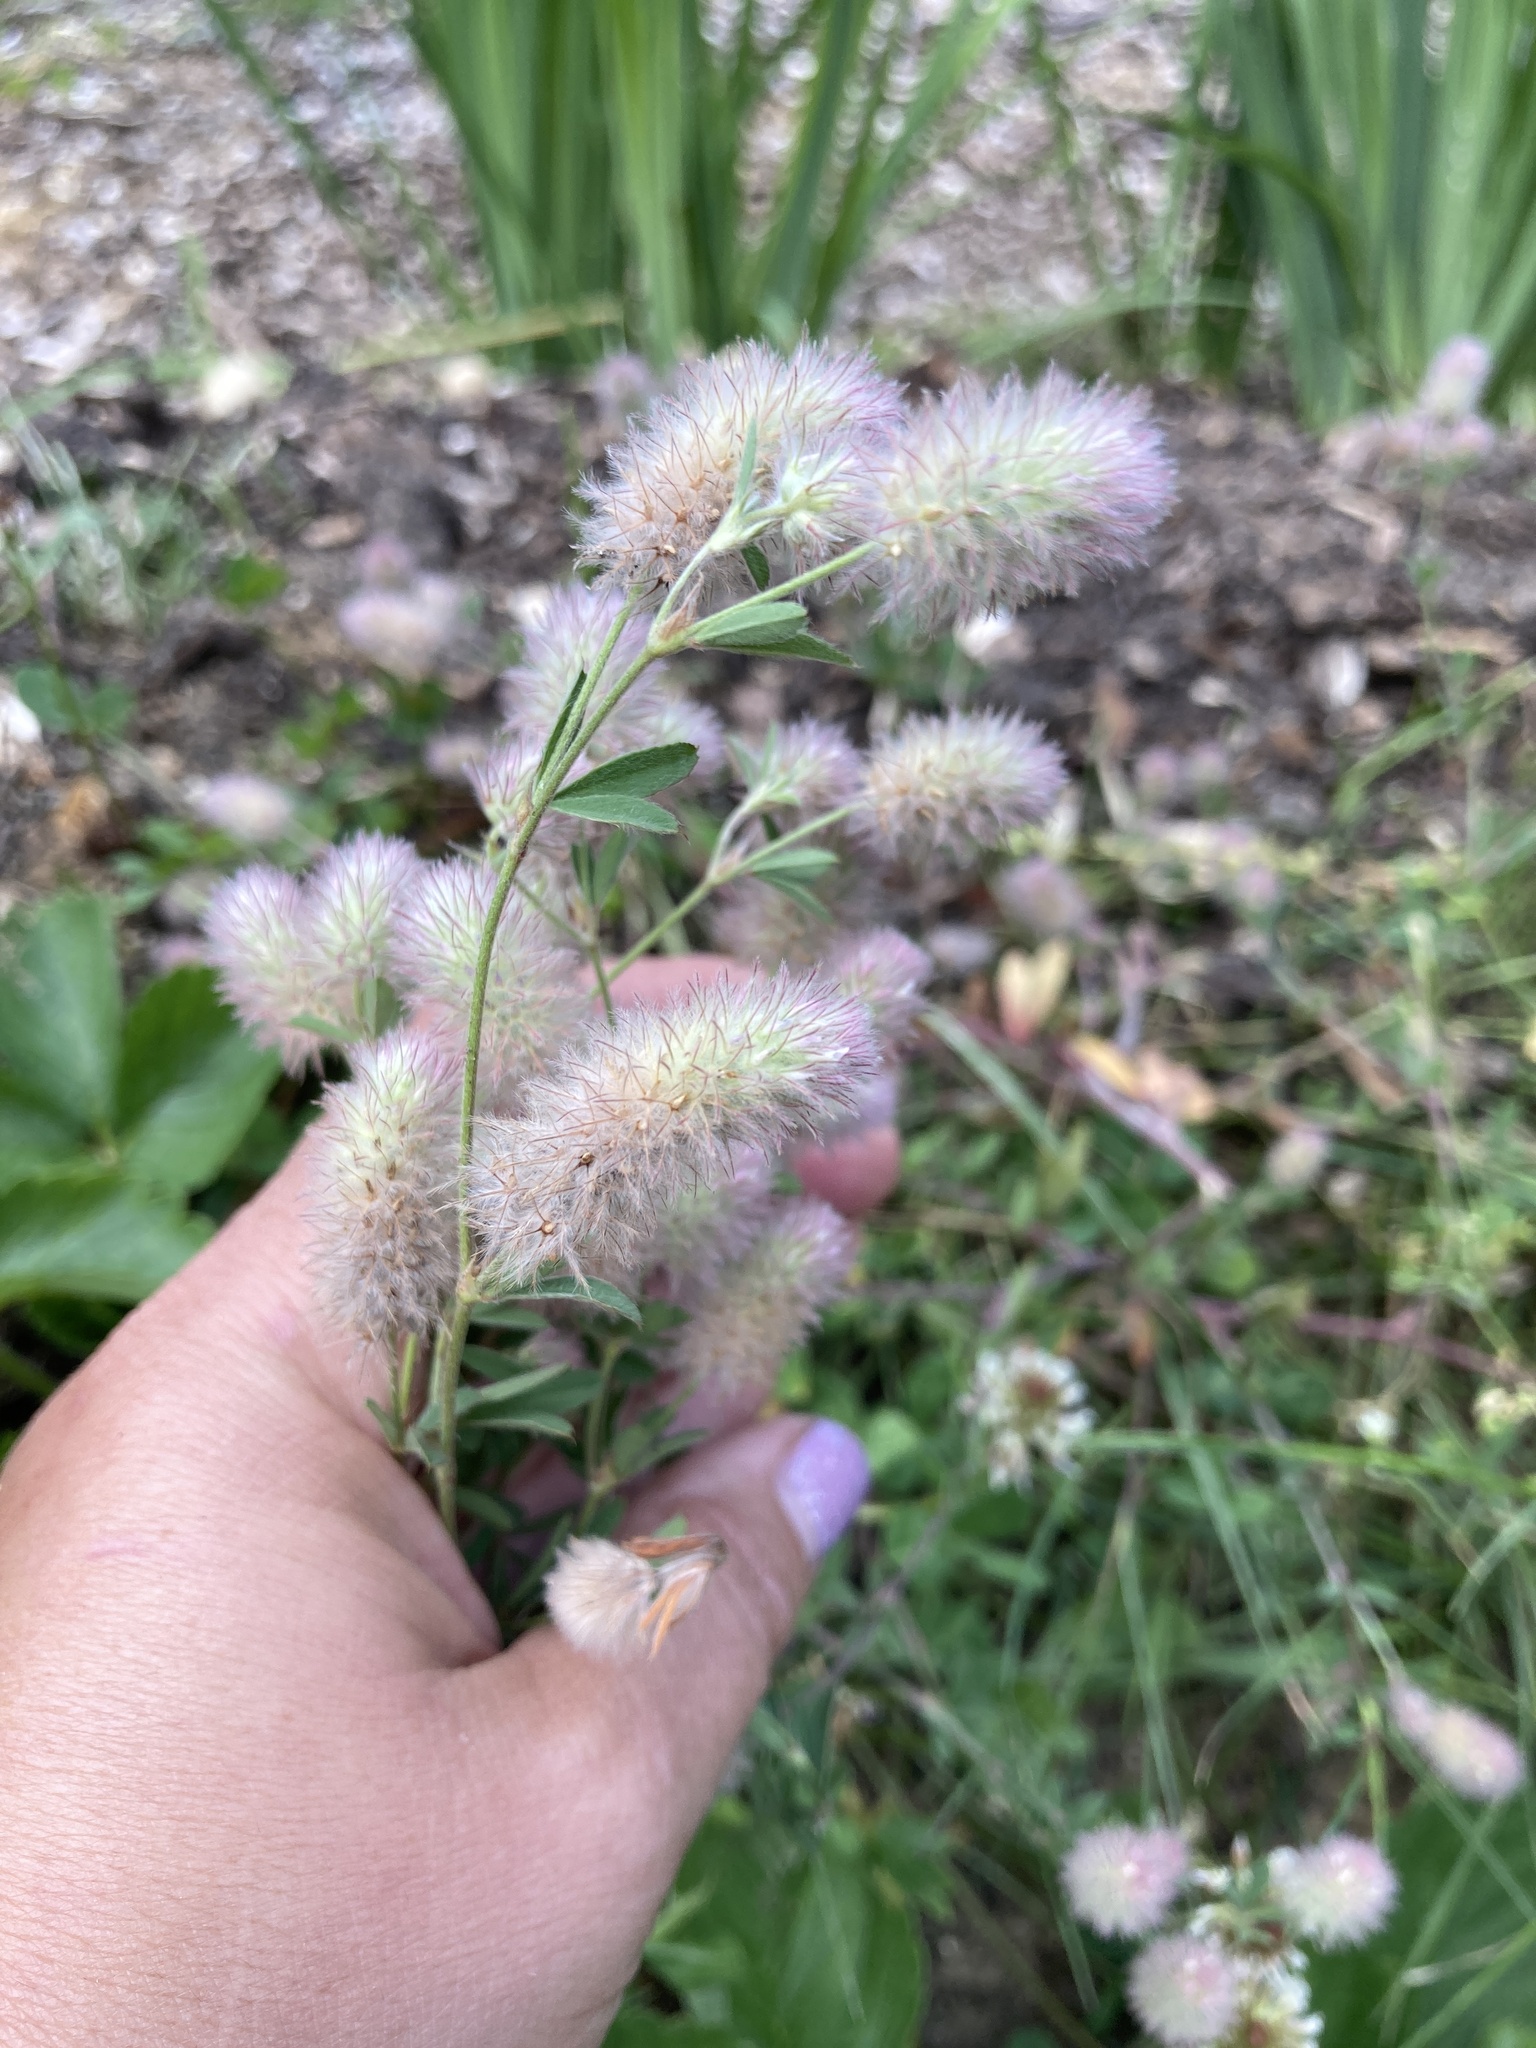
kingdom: Plantae
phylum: Tracheophyta
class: Magnoliopsida
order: Fabales
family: Fabaceae
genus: Trifolium
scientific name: Trifolium arvense
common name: Hare's-foot clover
